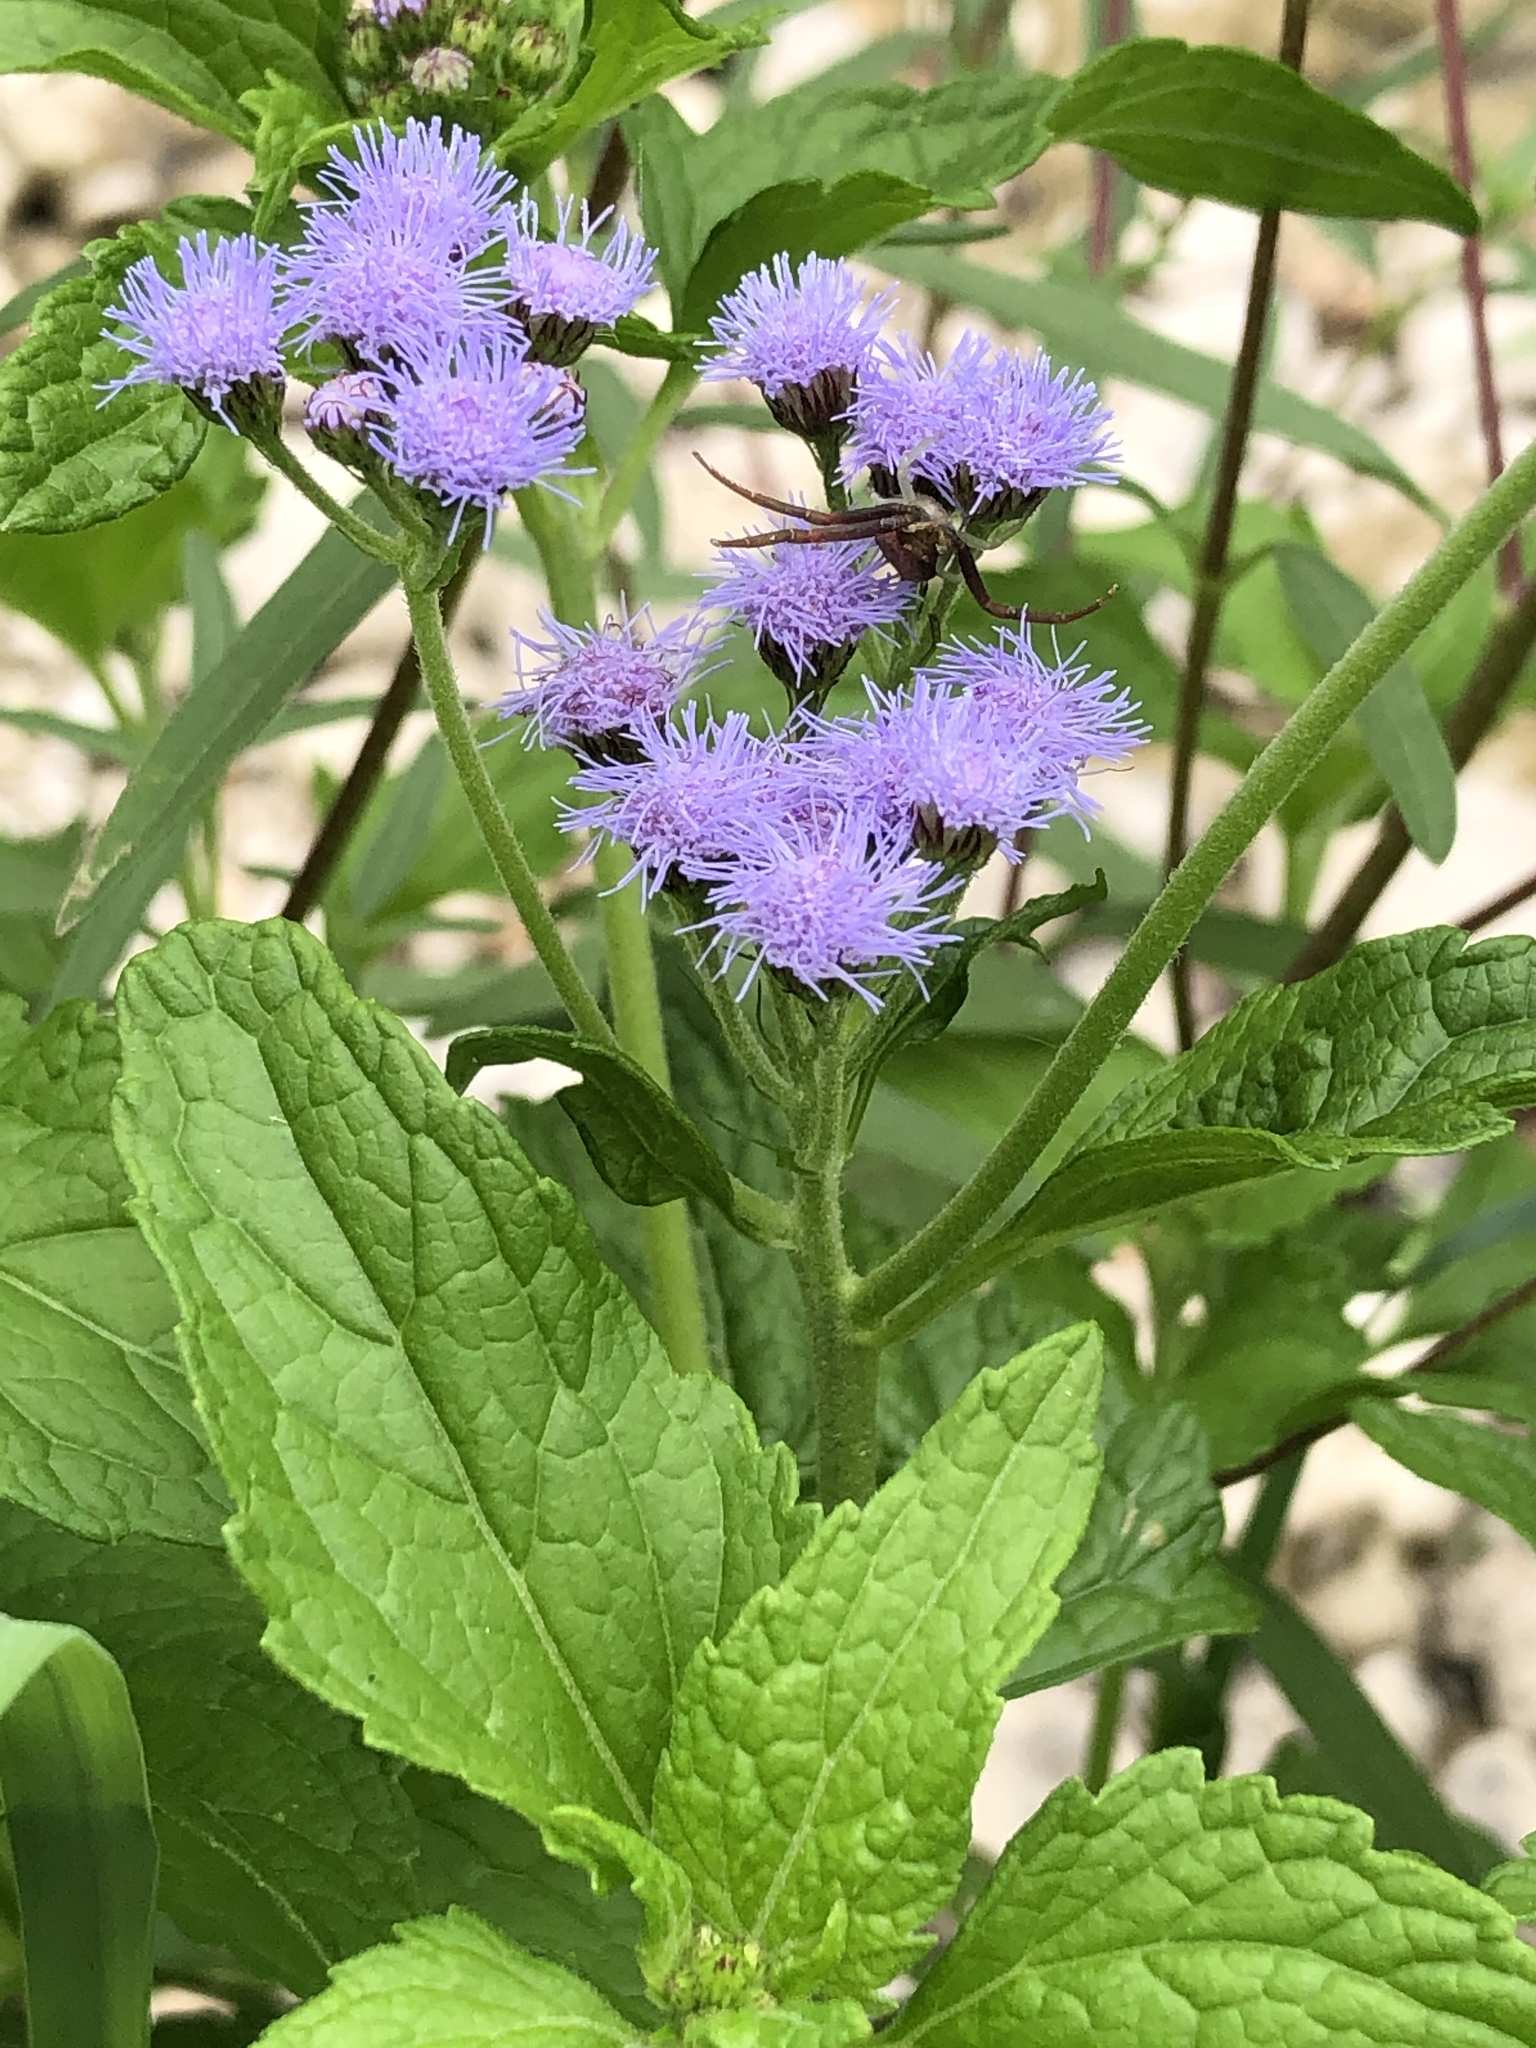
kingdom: Plantae
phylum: Tracheophyta
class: Magnoliopsida
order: Asterales
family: Asteraceae
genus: Conoclinium
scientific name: Conoclinium coelestinum
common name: Blue mistflower
